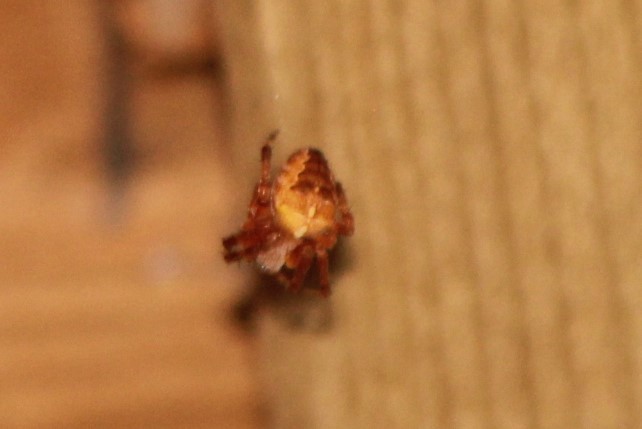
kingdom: Animalia
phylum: Arthropoda
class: Arachnida
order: Araneae
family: Araneidae
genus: Araneus
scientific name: Araneus diadematus
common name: Cross orbweaver
